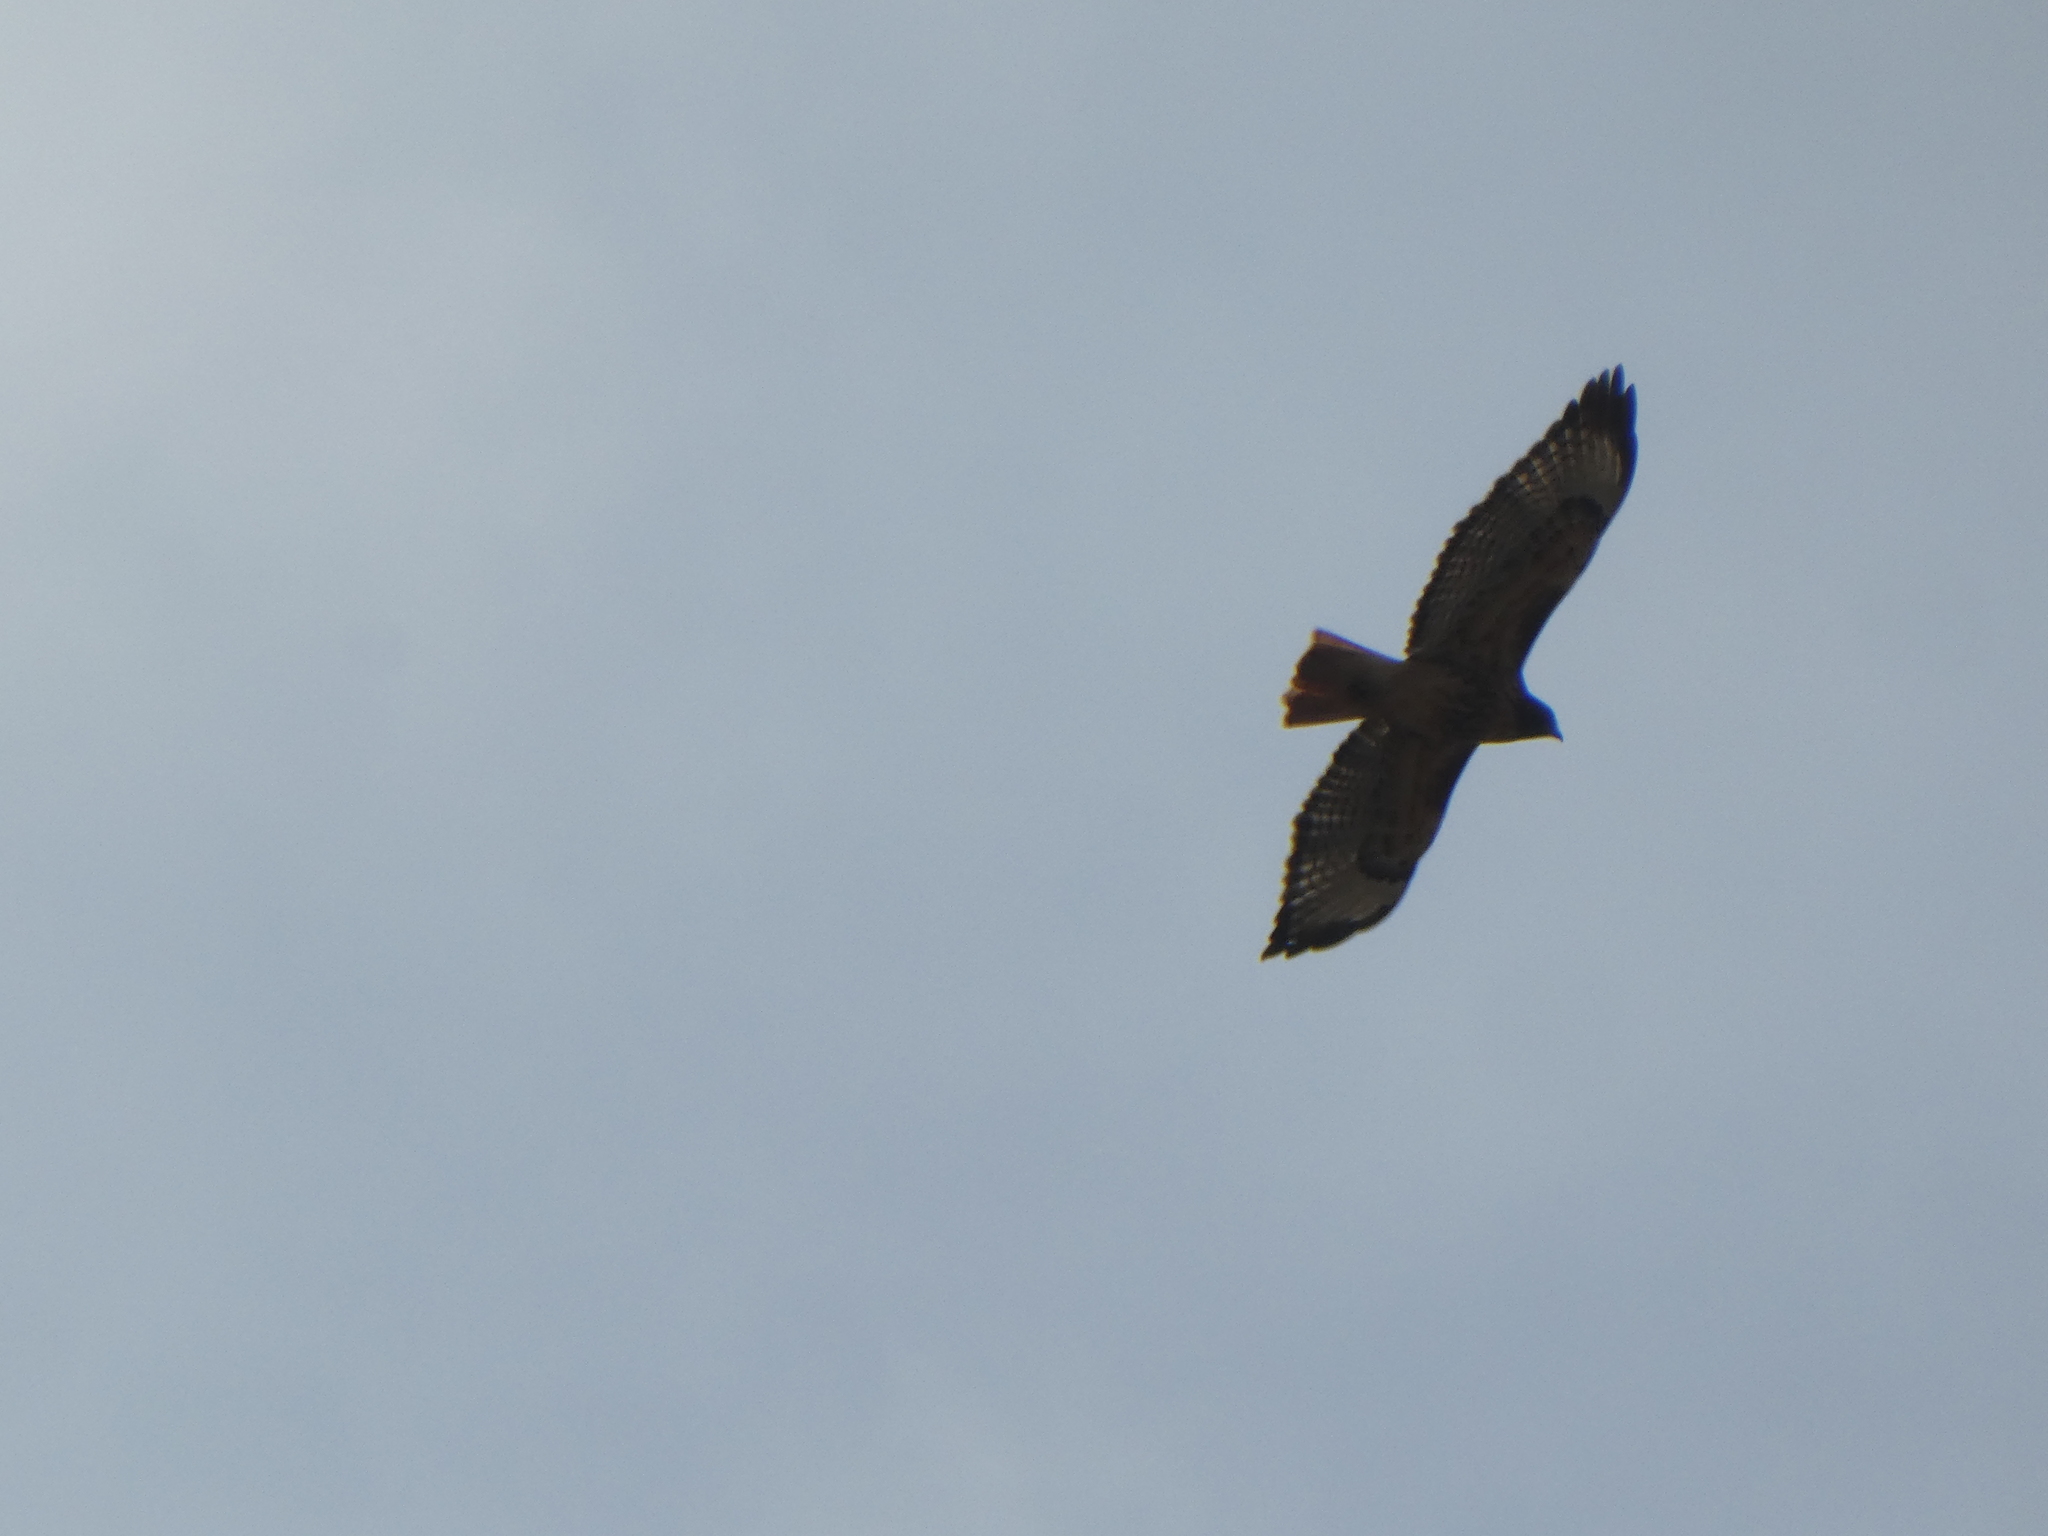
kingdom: Animalia
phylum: Chordata
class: Aves
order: Accipitriformes
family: Accipitridae
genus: Buteo
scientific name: Buteo jamaicensis
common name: Red-tailed hawk
